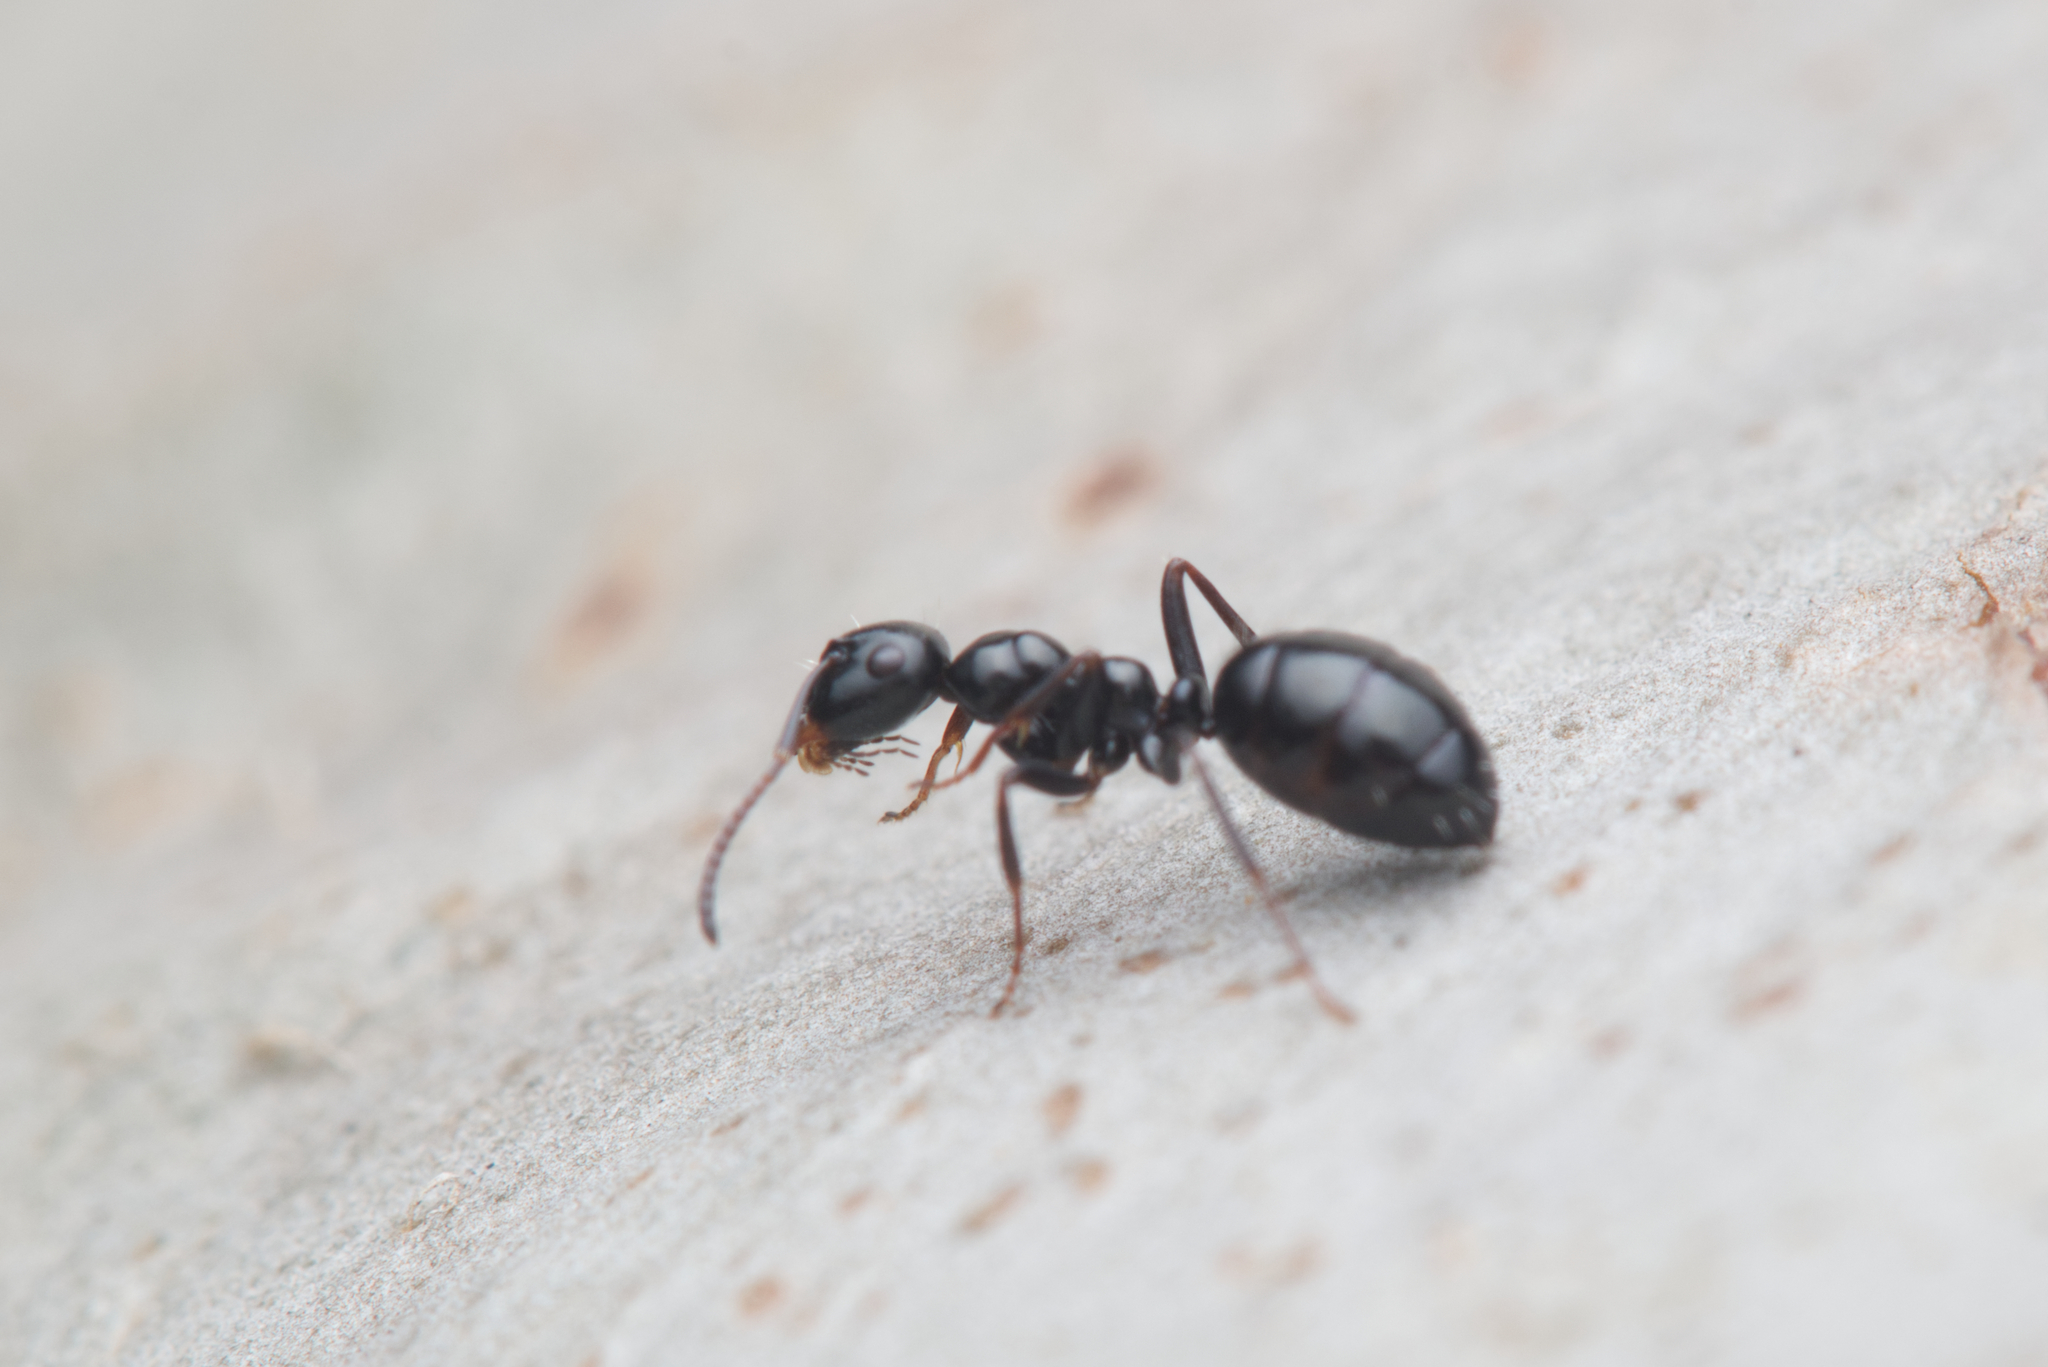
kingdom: Animalia
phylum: Arthropoda
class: Insecta
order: Hymenoptera
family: Formicidae
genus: Colobopsis
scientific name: Colobopsis gasseri
